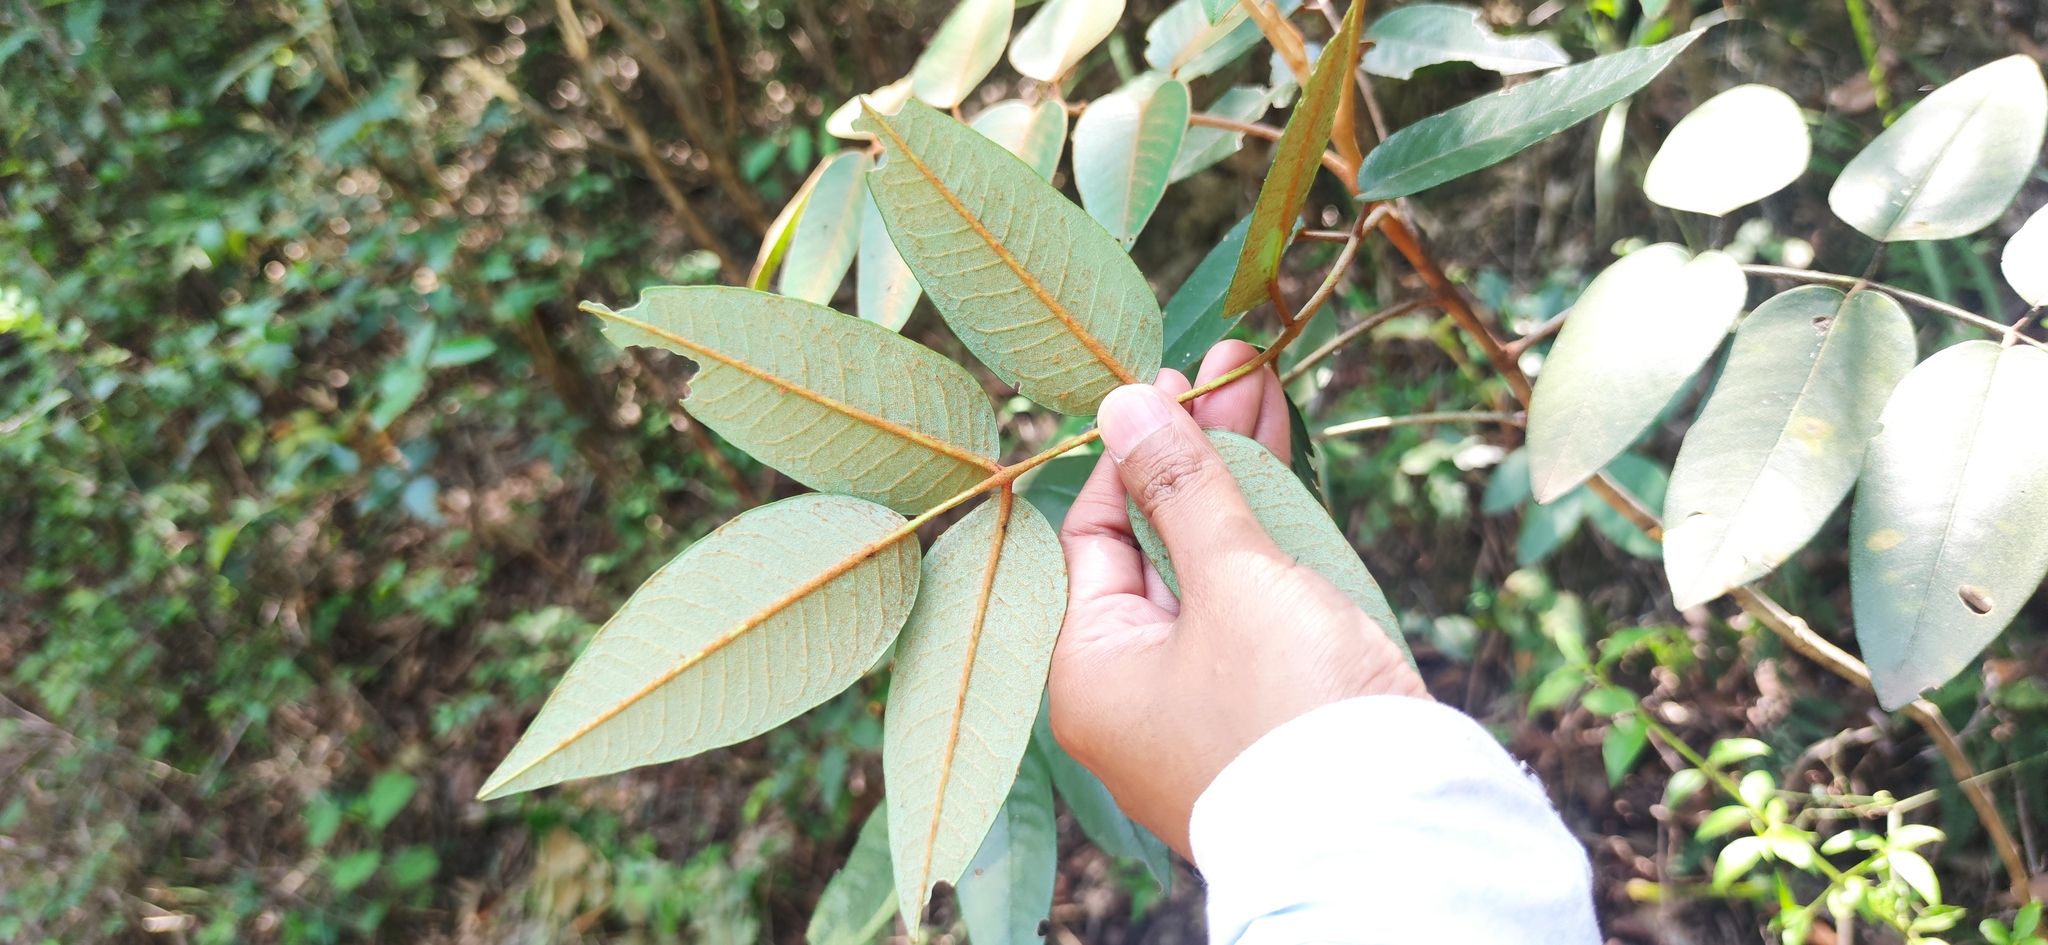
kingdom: Plantae
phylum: Tracheophyta
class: Magnoliopsida
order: Sapindales
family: Rutaceae
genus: Decatropis
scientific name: Decatropis bicolor
